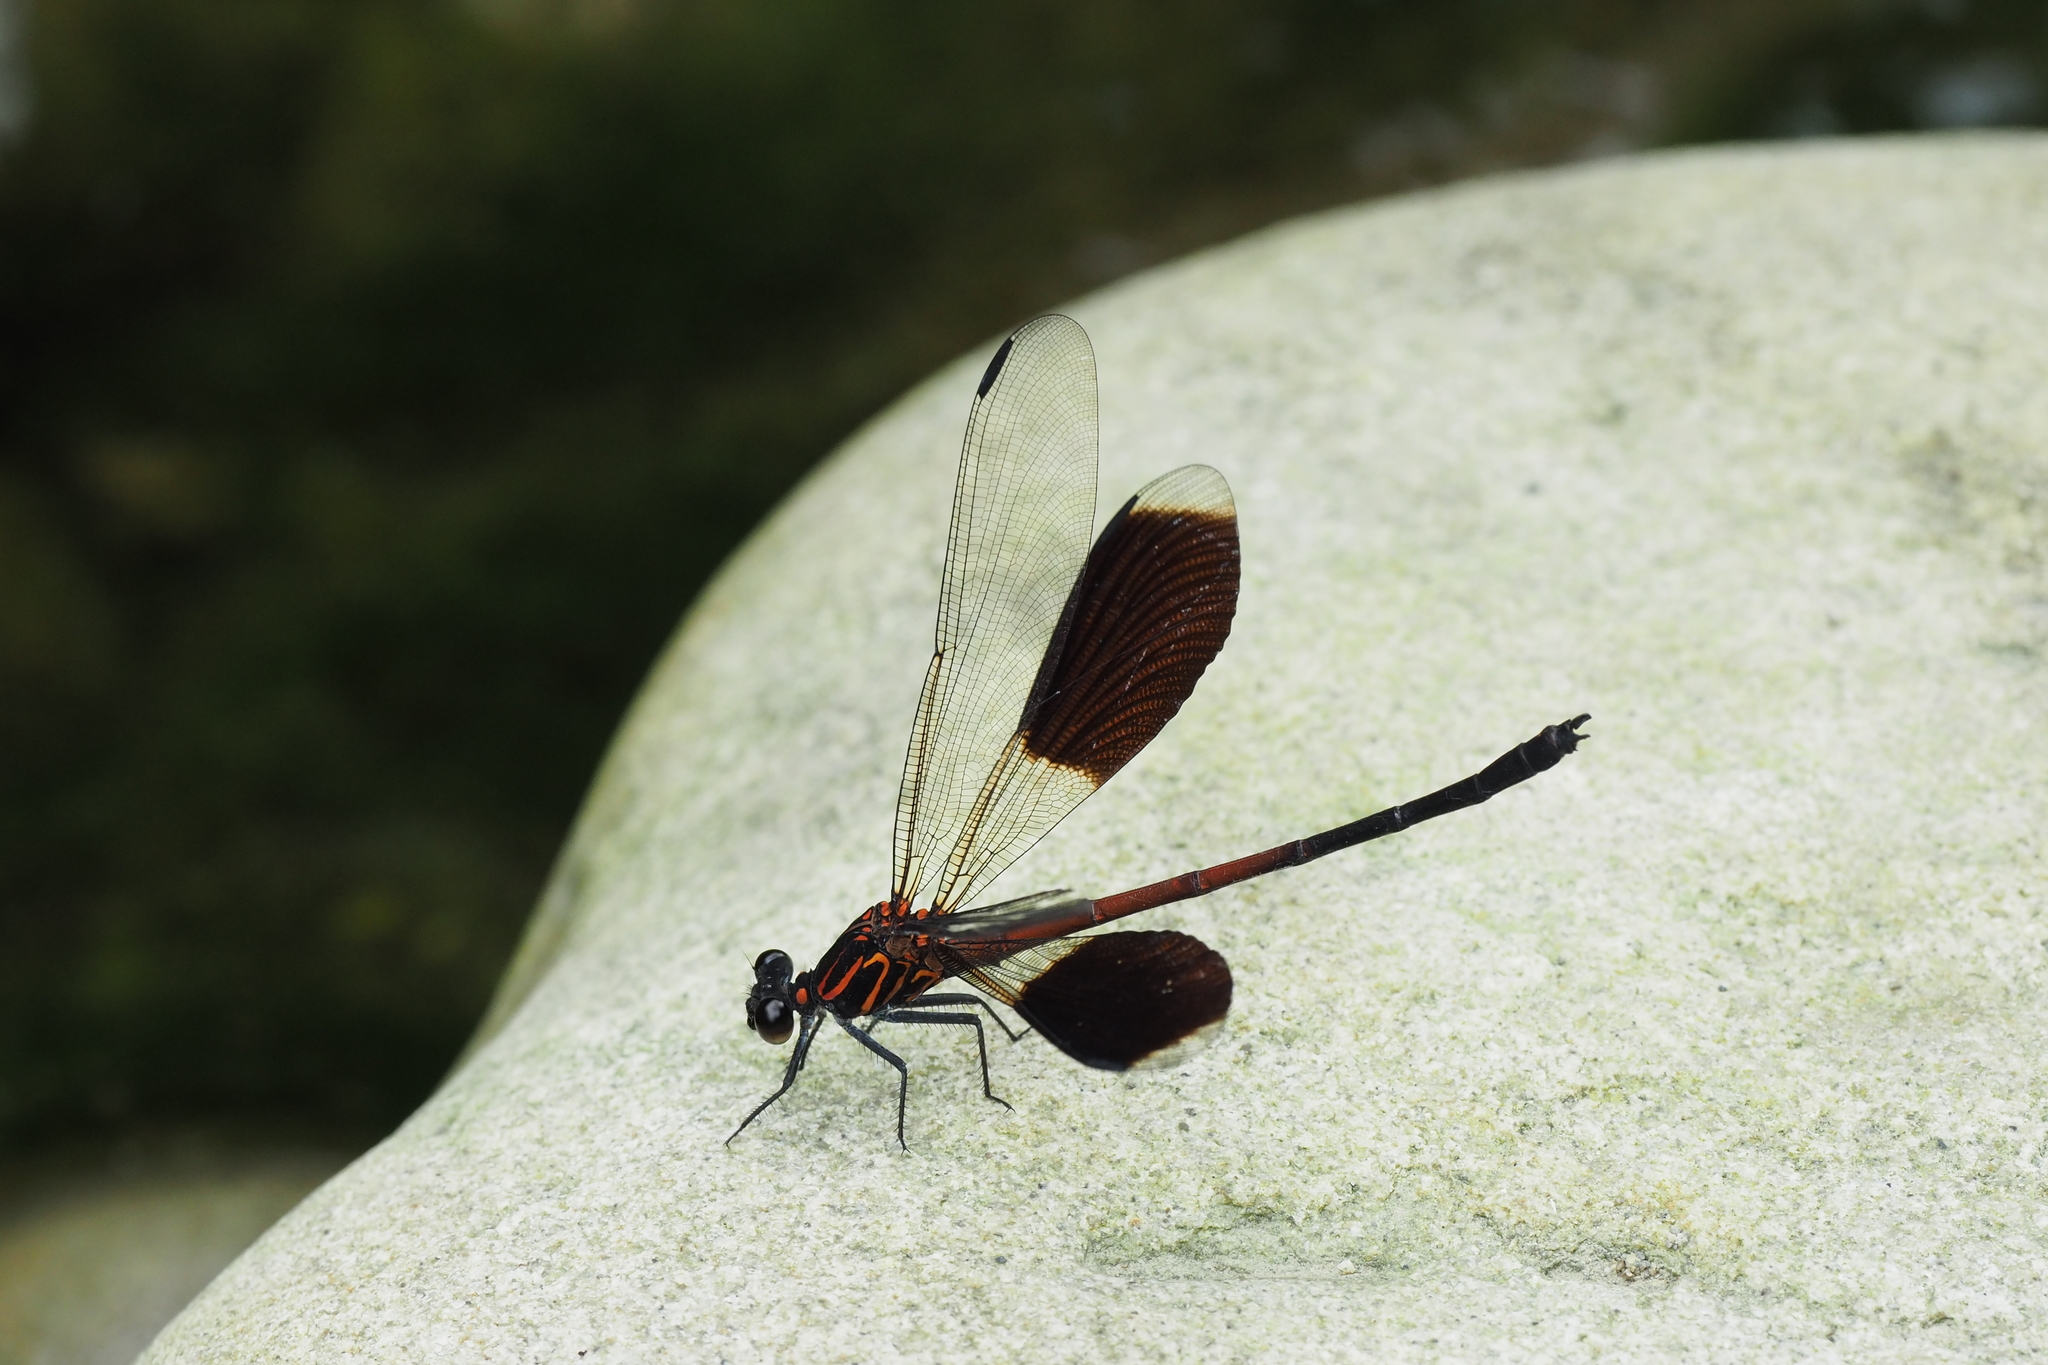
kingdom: Animalia
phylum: Arthropoda
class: Insecta
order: Odonata
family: Euphaeidae
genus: Euphaea
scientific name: Euphaea formosa
